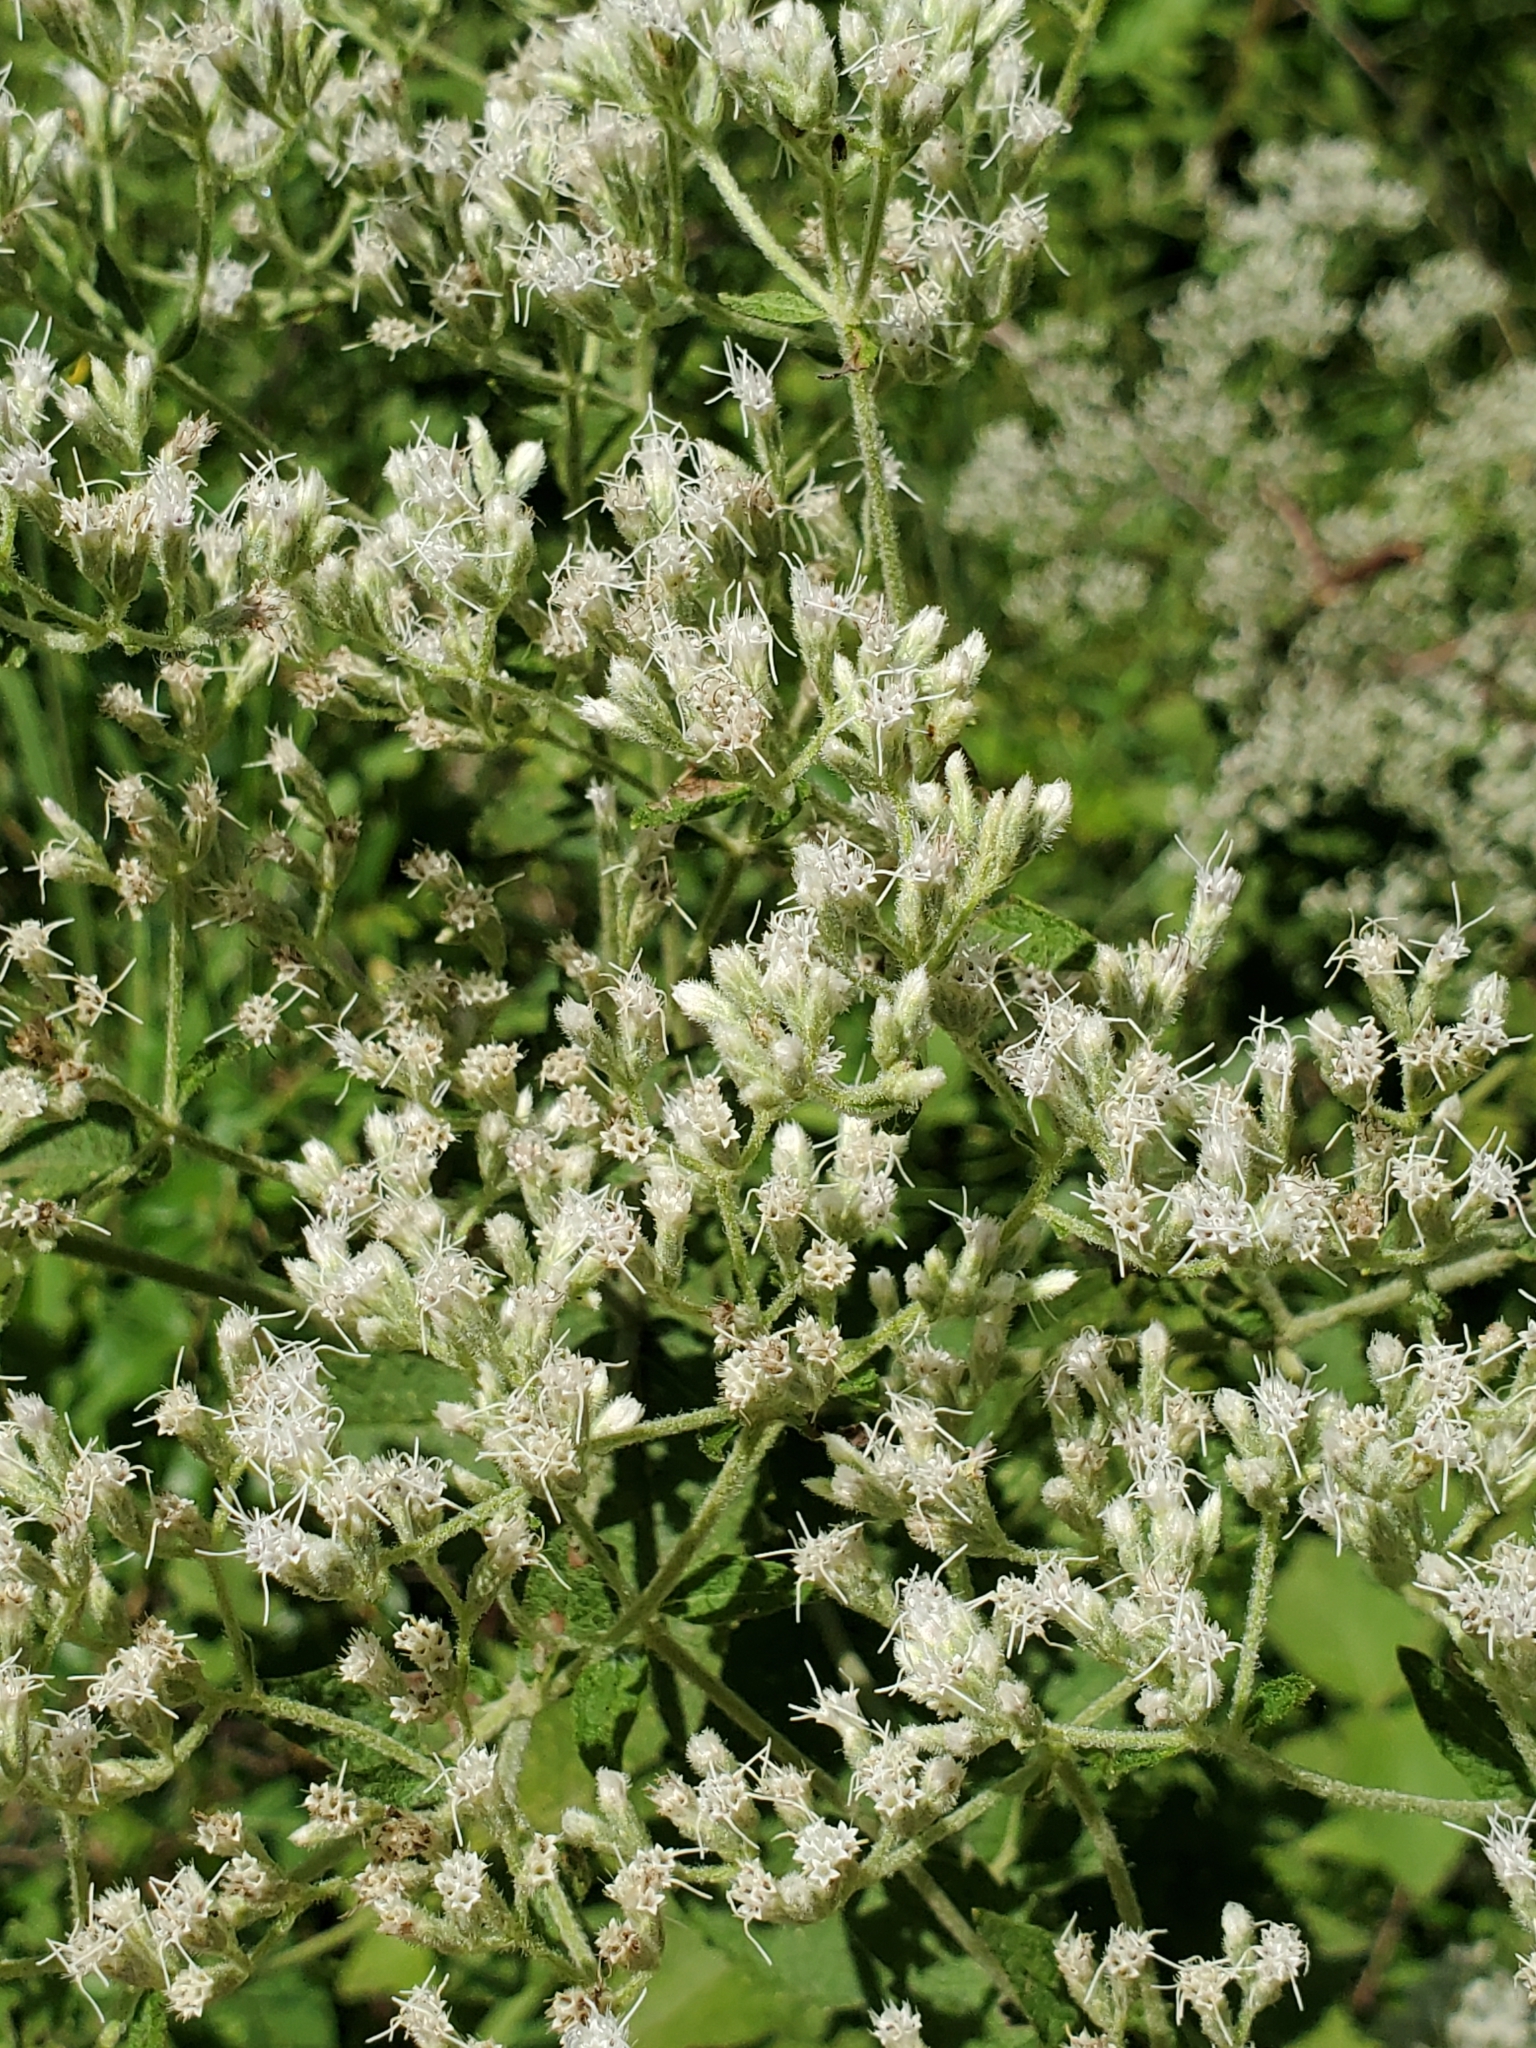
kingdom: Plantae
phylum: Tracheophyta
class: Magnoliopsida
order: Asterales
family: Asteraceae
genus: Eupatorium
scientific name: Eupatorium cordigerum
